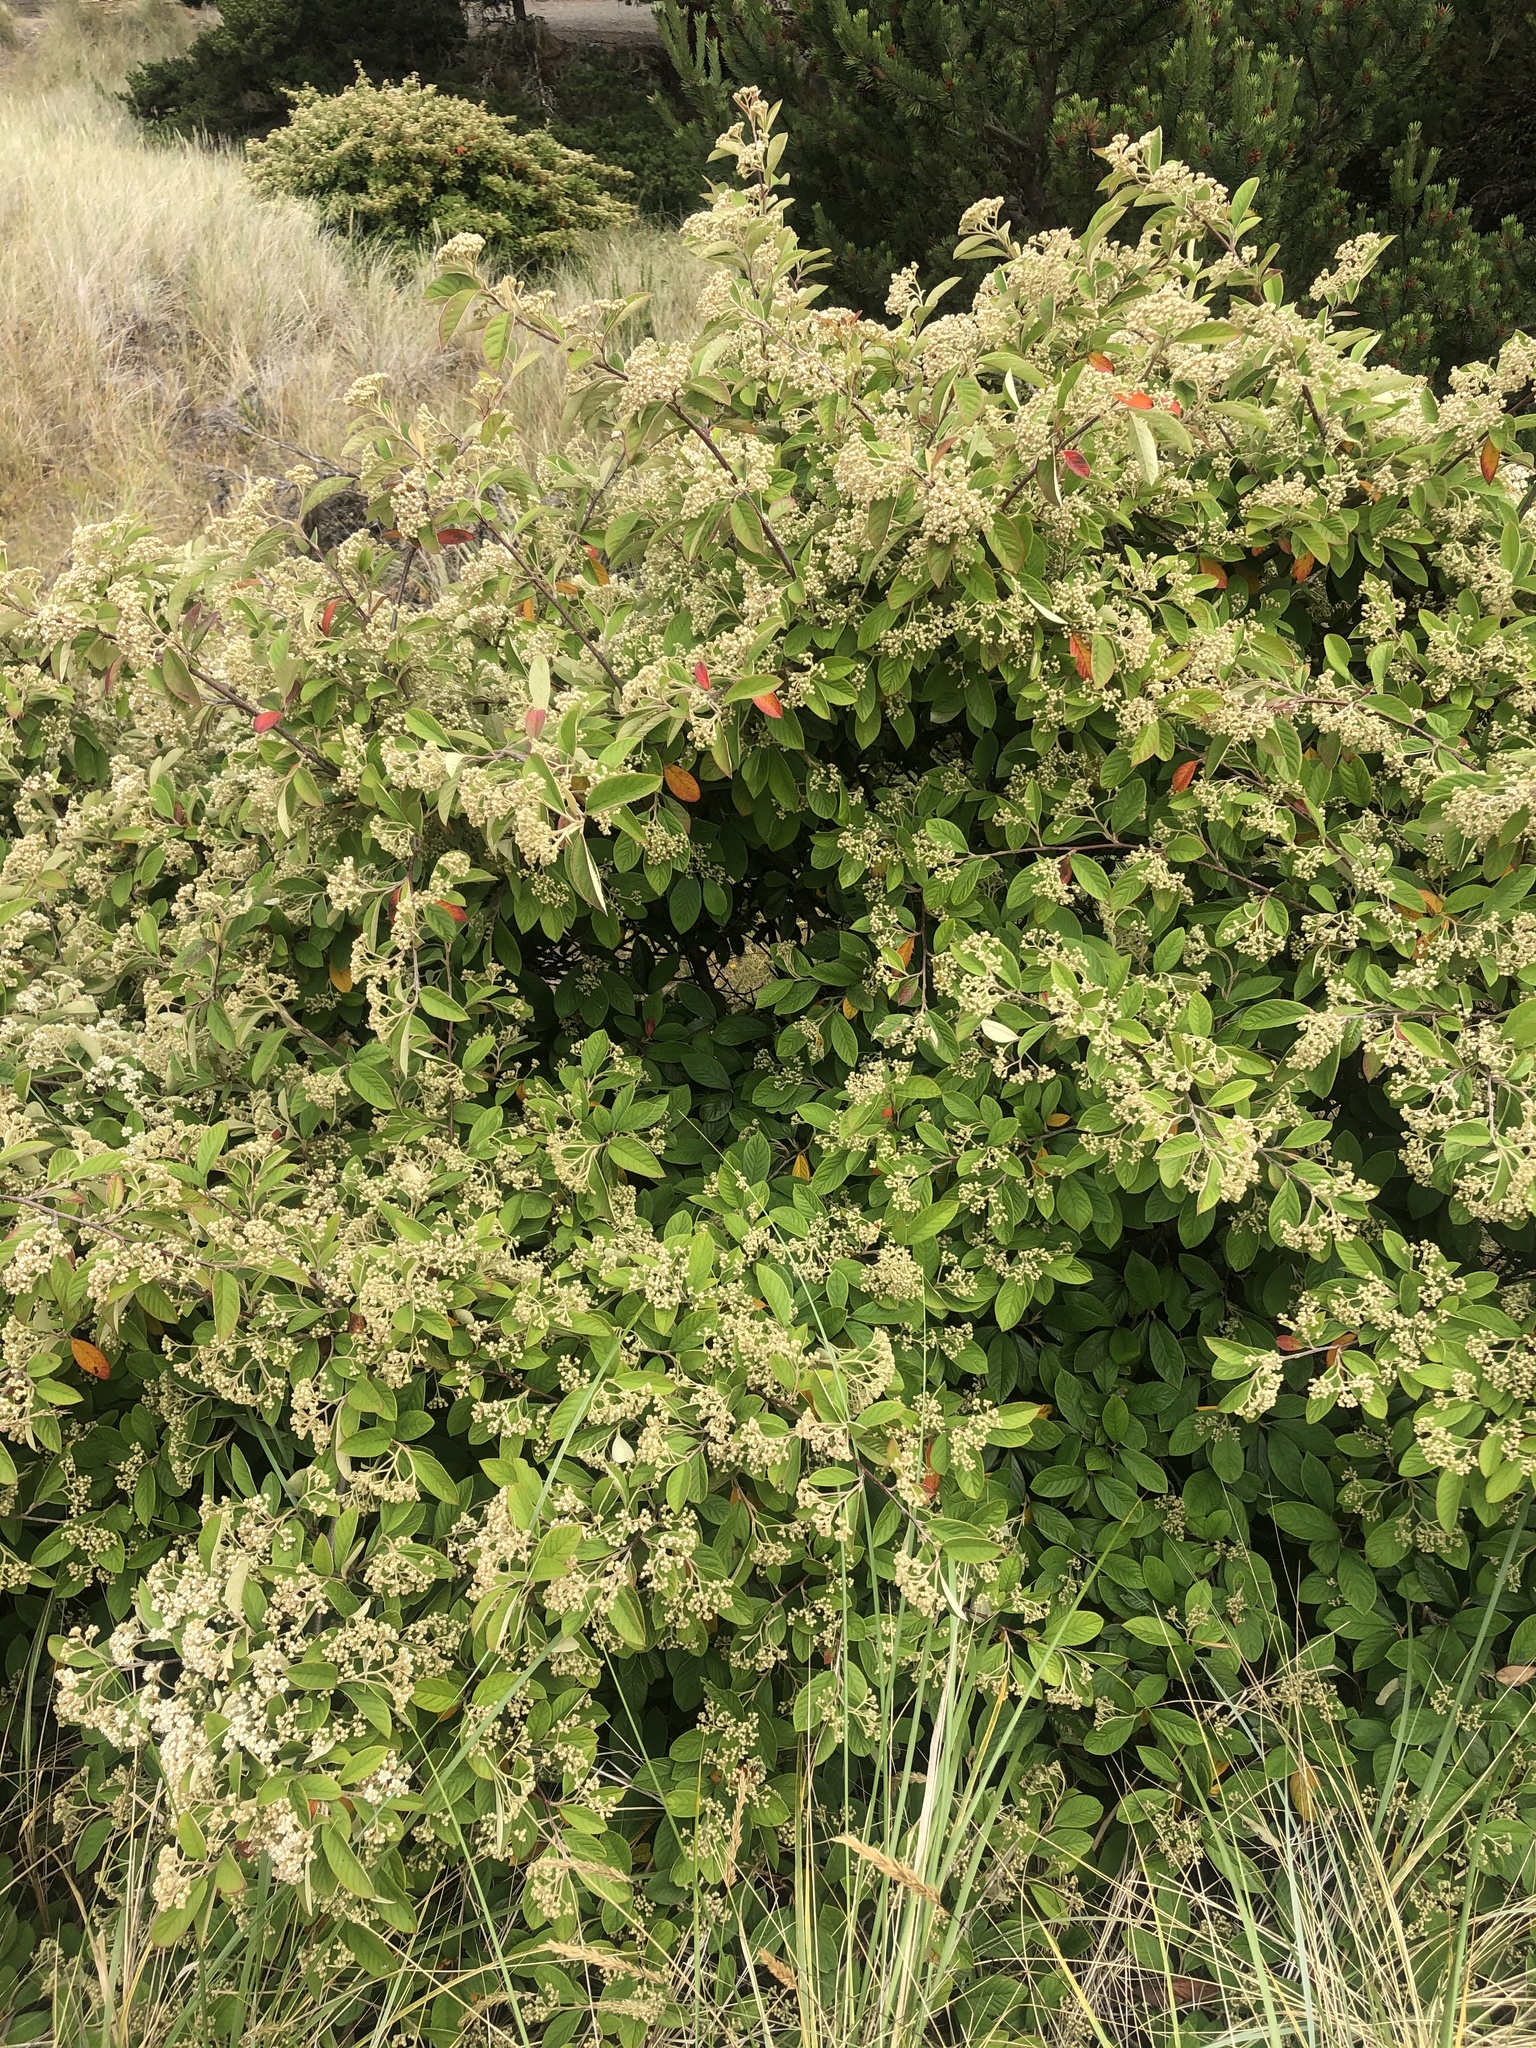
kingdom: Plantae
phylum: Tracheophyta
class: Magnoliopsida
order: Rosales
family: Rosaceae
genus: Cotoneaster
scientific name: Cotoneaster coriaceus
